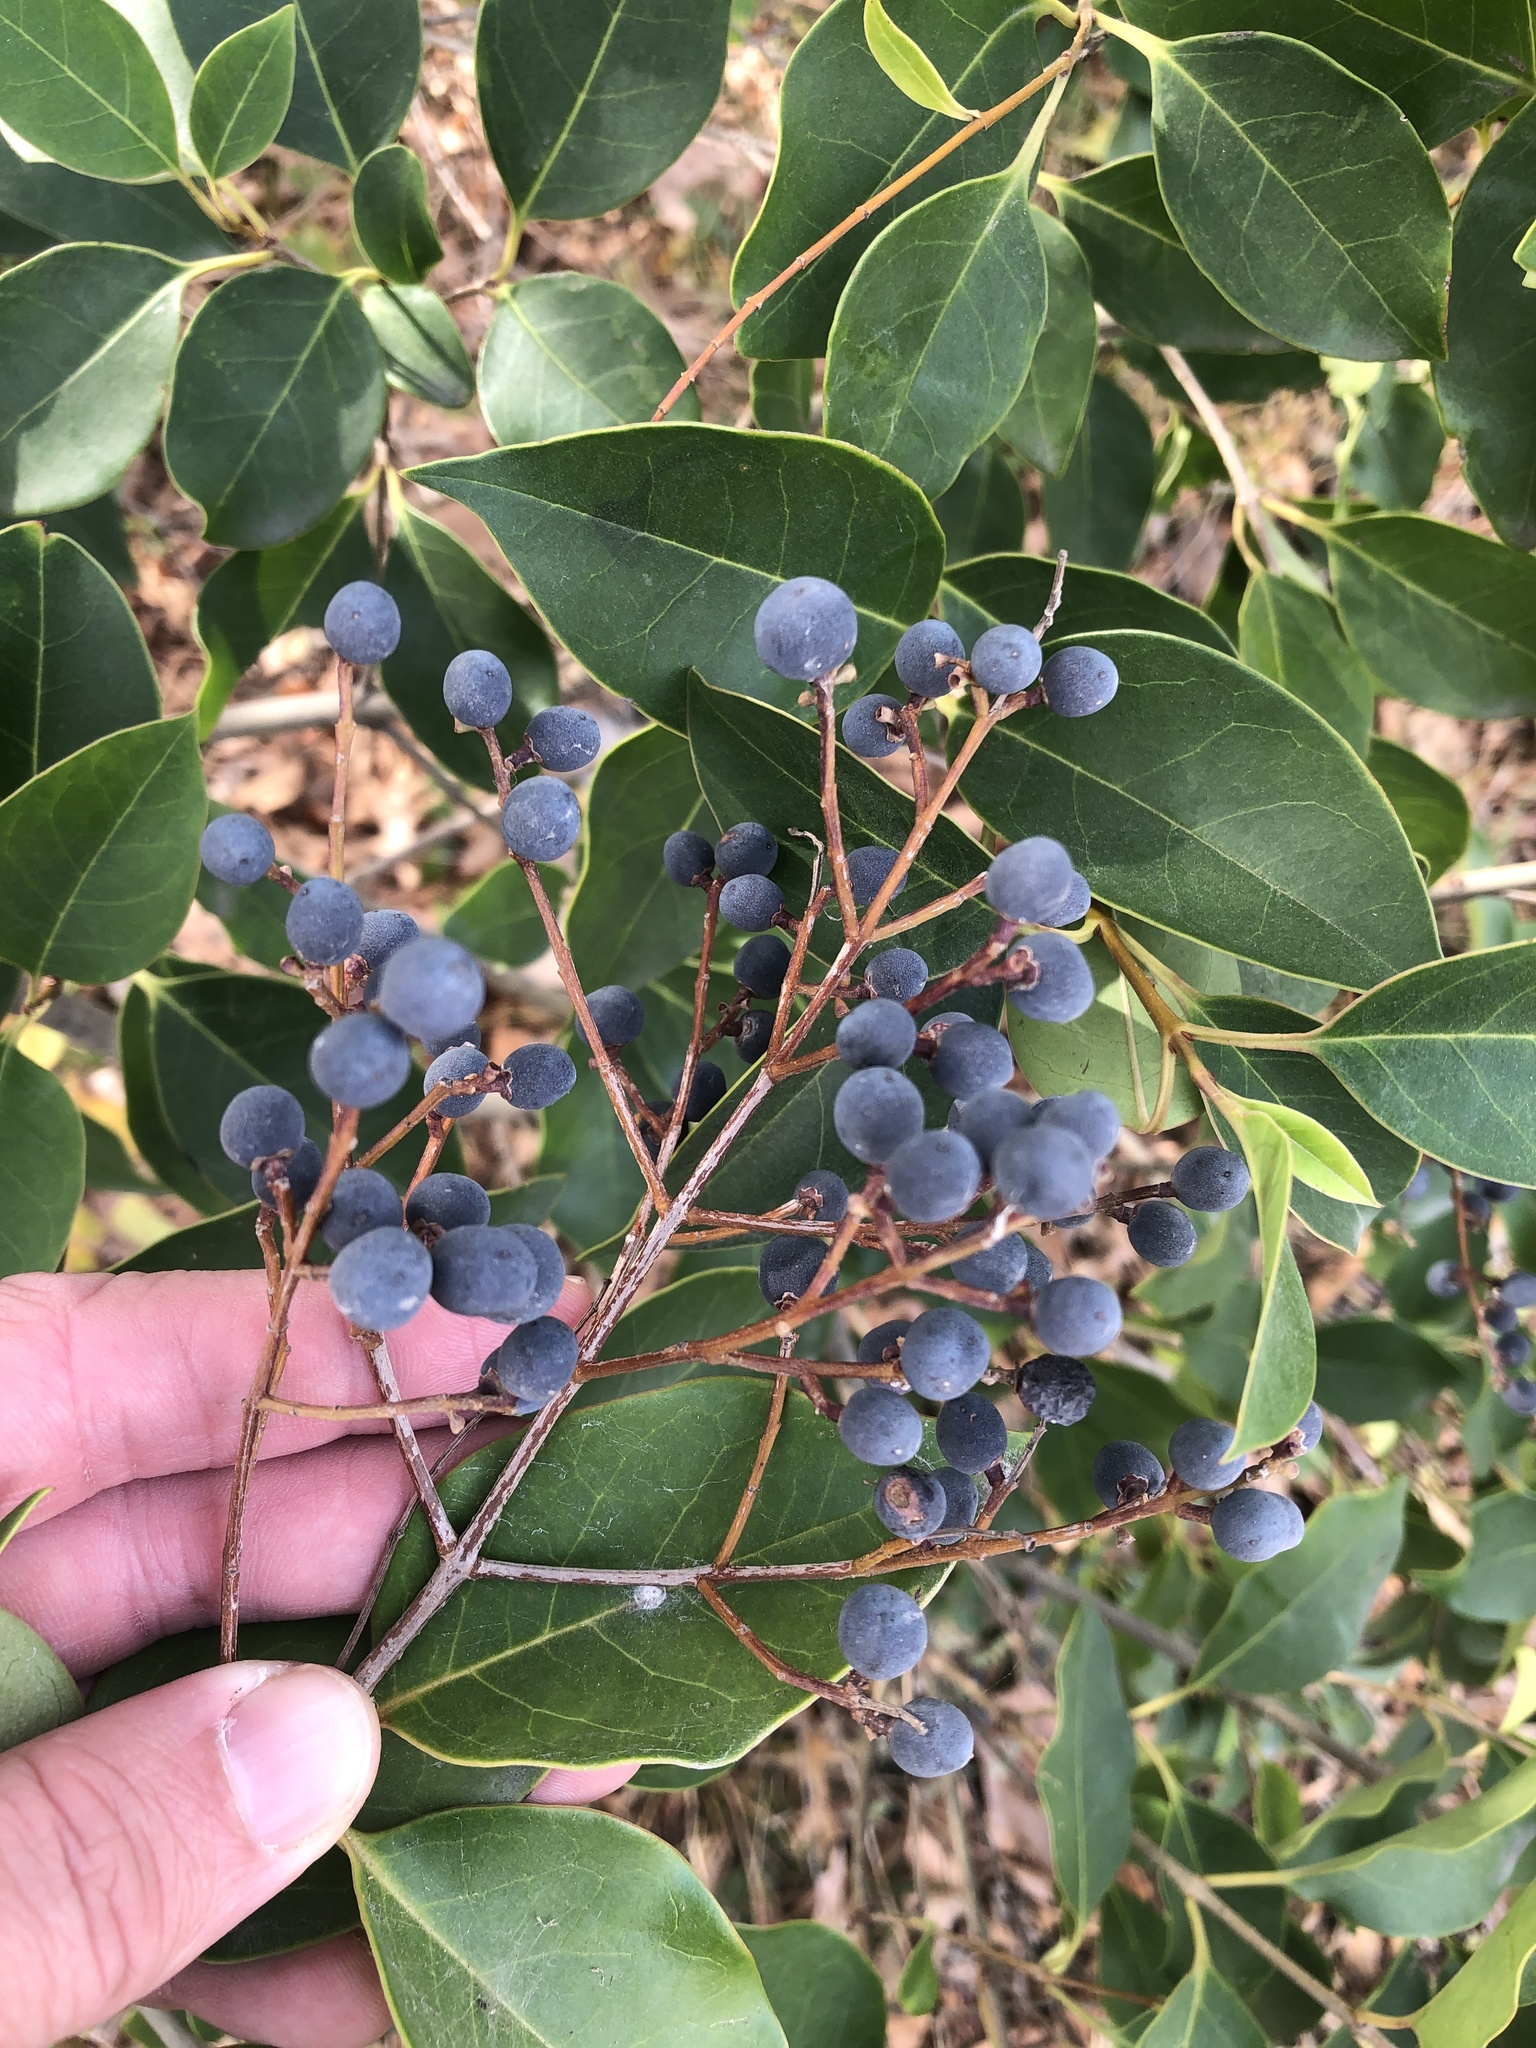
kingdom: Plantae
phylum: Tracheophyta
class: Magnoliopsida
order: Lamiales
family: Oleaceae
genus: Ligustrum
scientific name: Ligustrum lucidum
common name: Glossy privet
